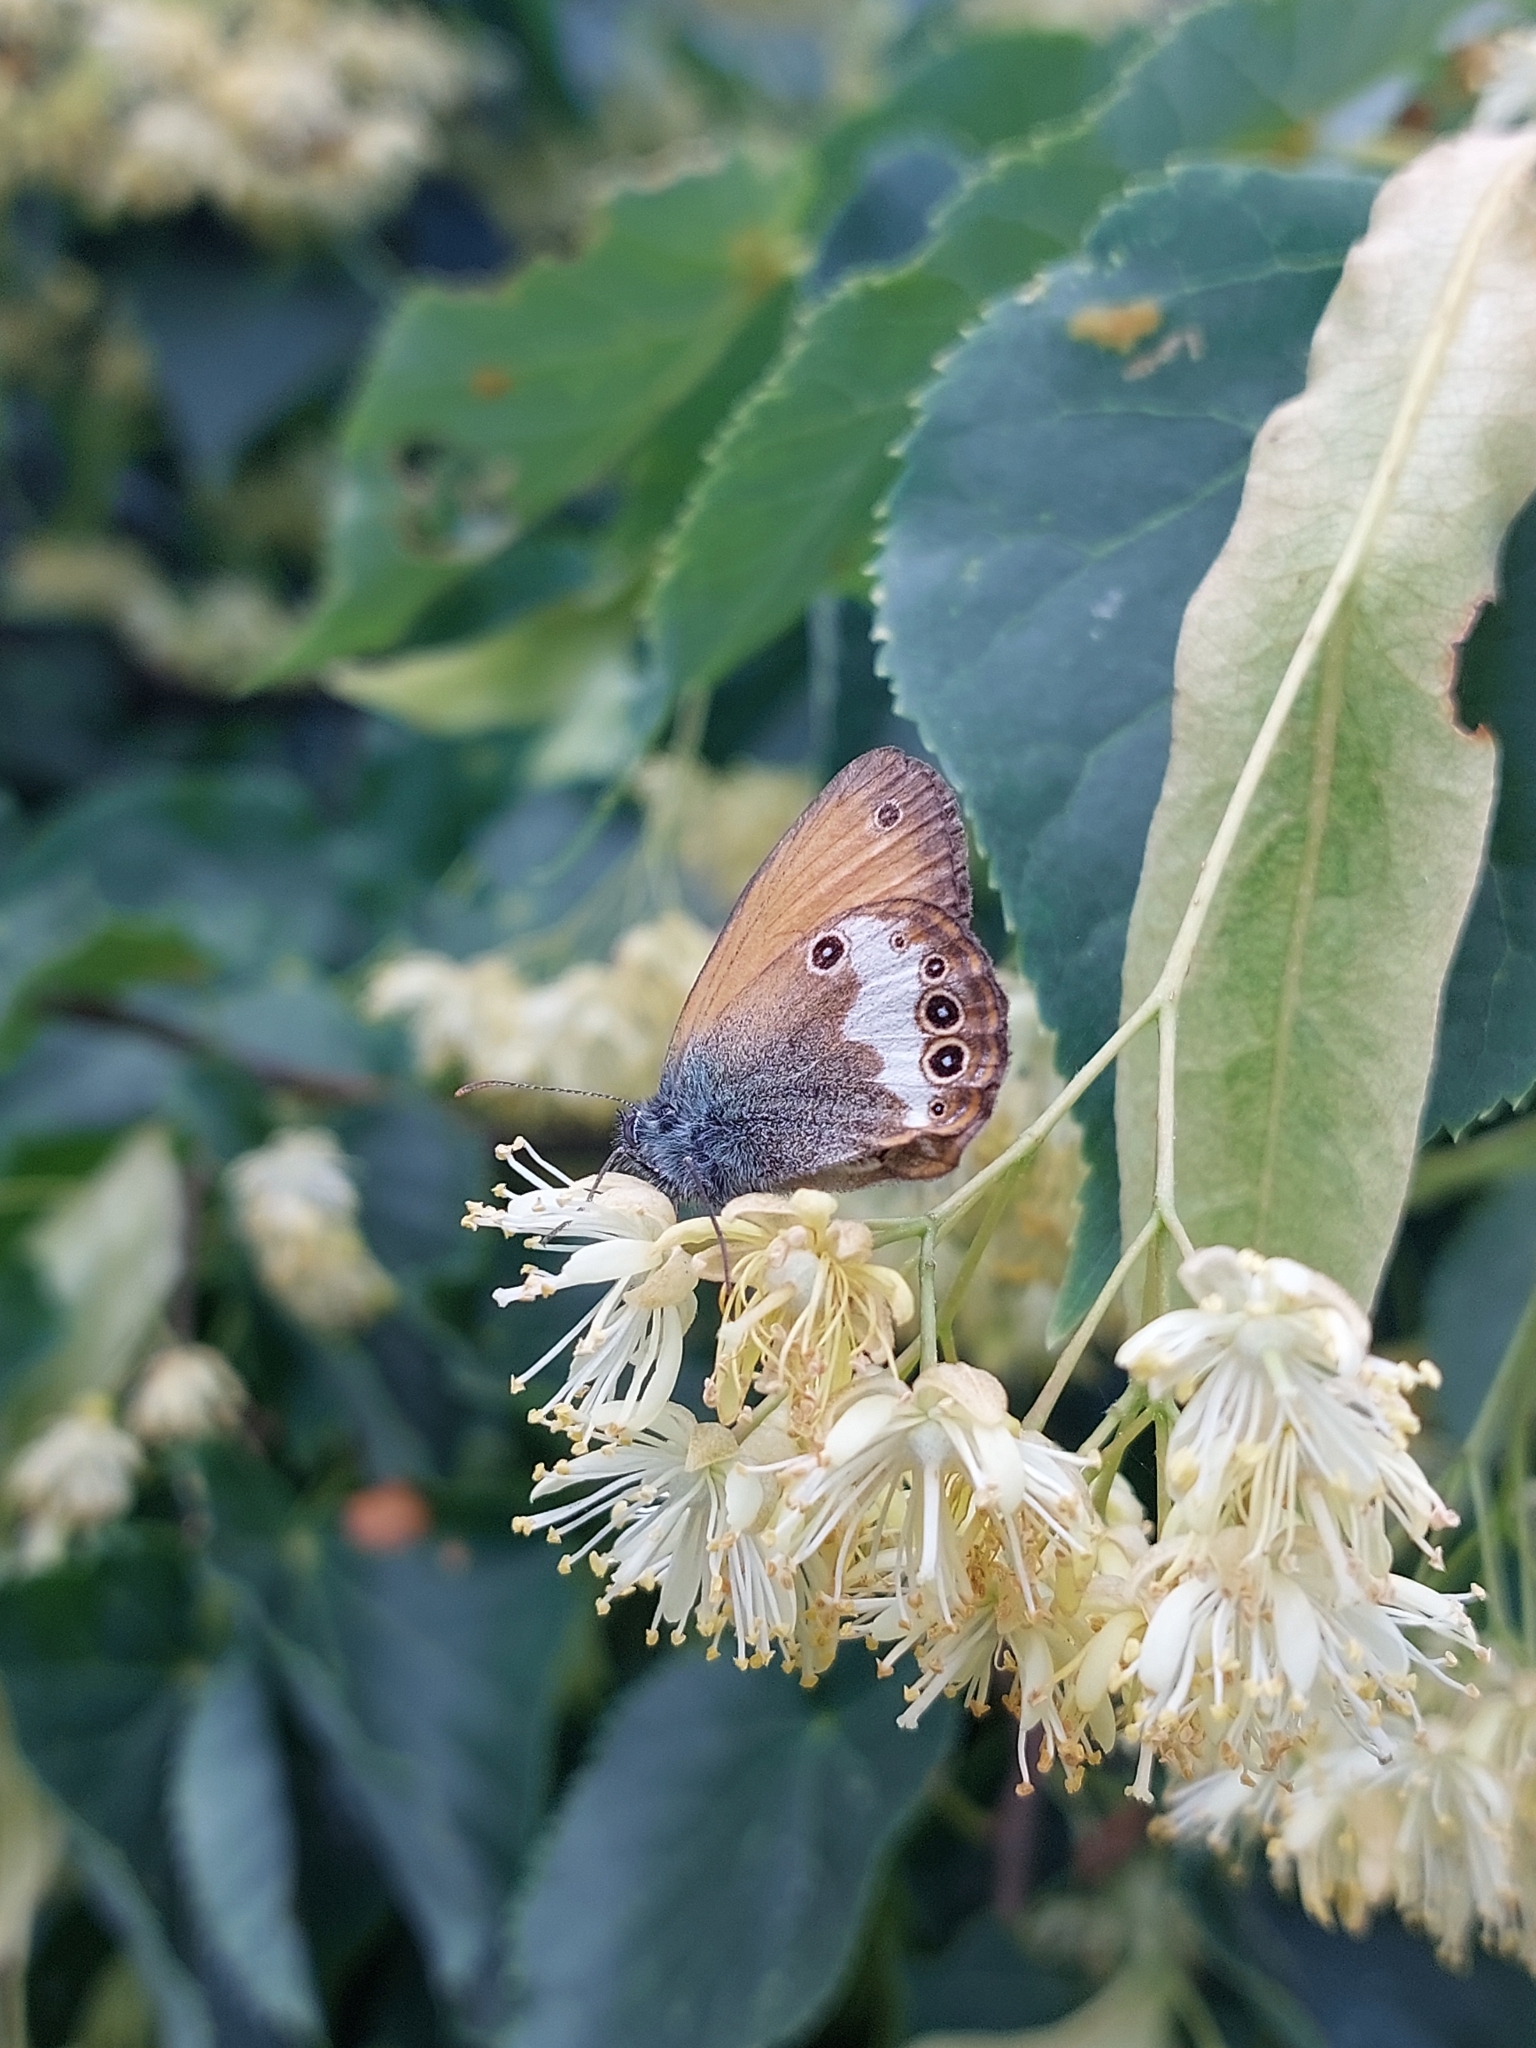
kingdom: Animalia
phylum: Arthropoda
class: Insecta
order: Lepidoptera
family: Nymphalidae
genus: Coenonympha
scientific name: Coenonympha arcania
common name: Pearly heath
